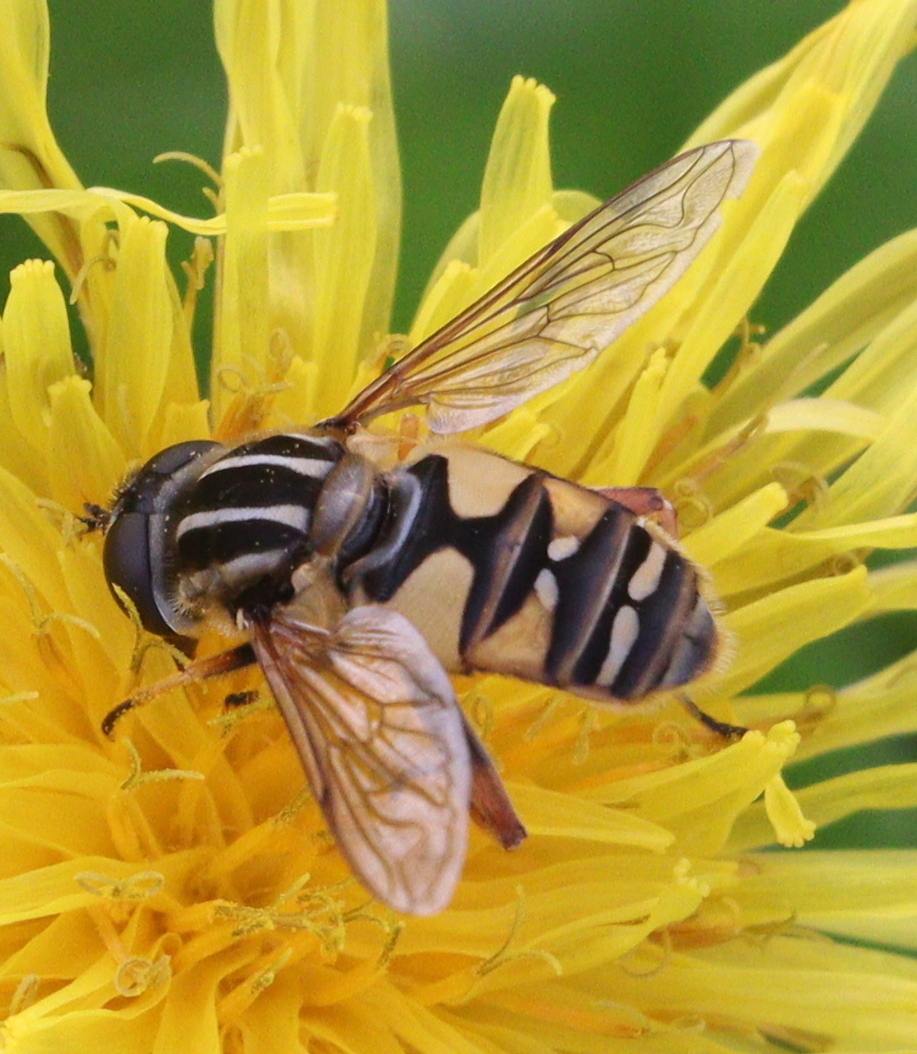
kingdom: Animalia
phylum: Arthropoda
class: Insecta
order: Diptera
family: Syrphidae
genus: Helophilus
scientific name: Helophilus pendulus
